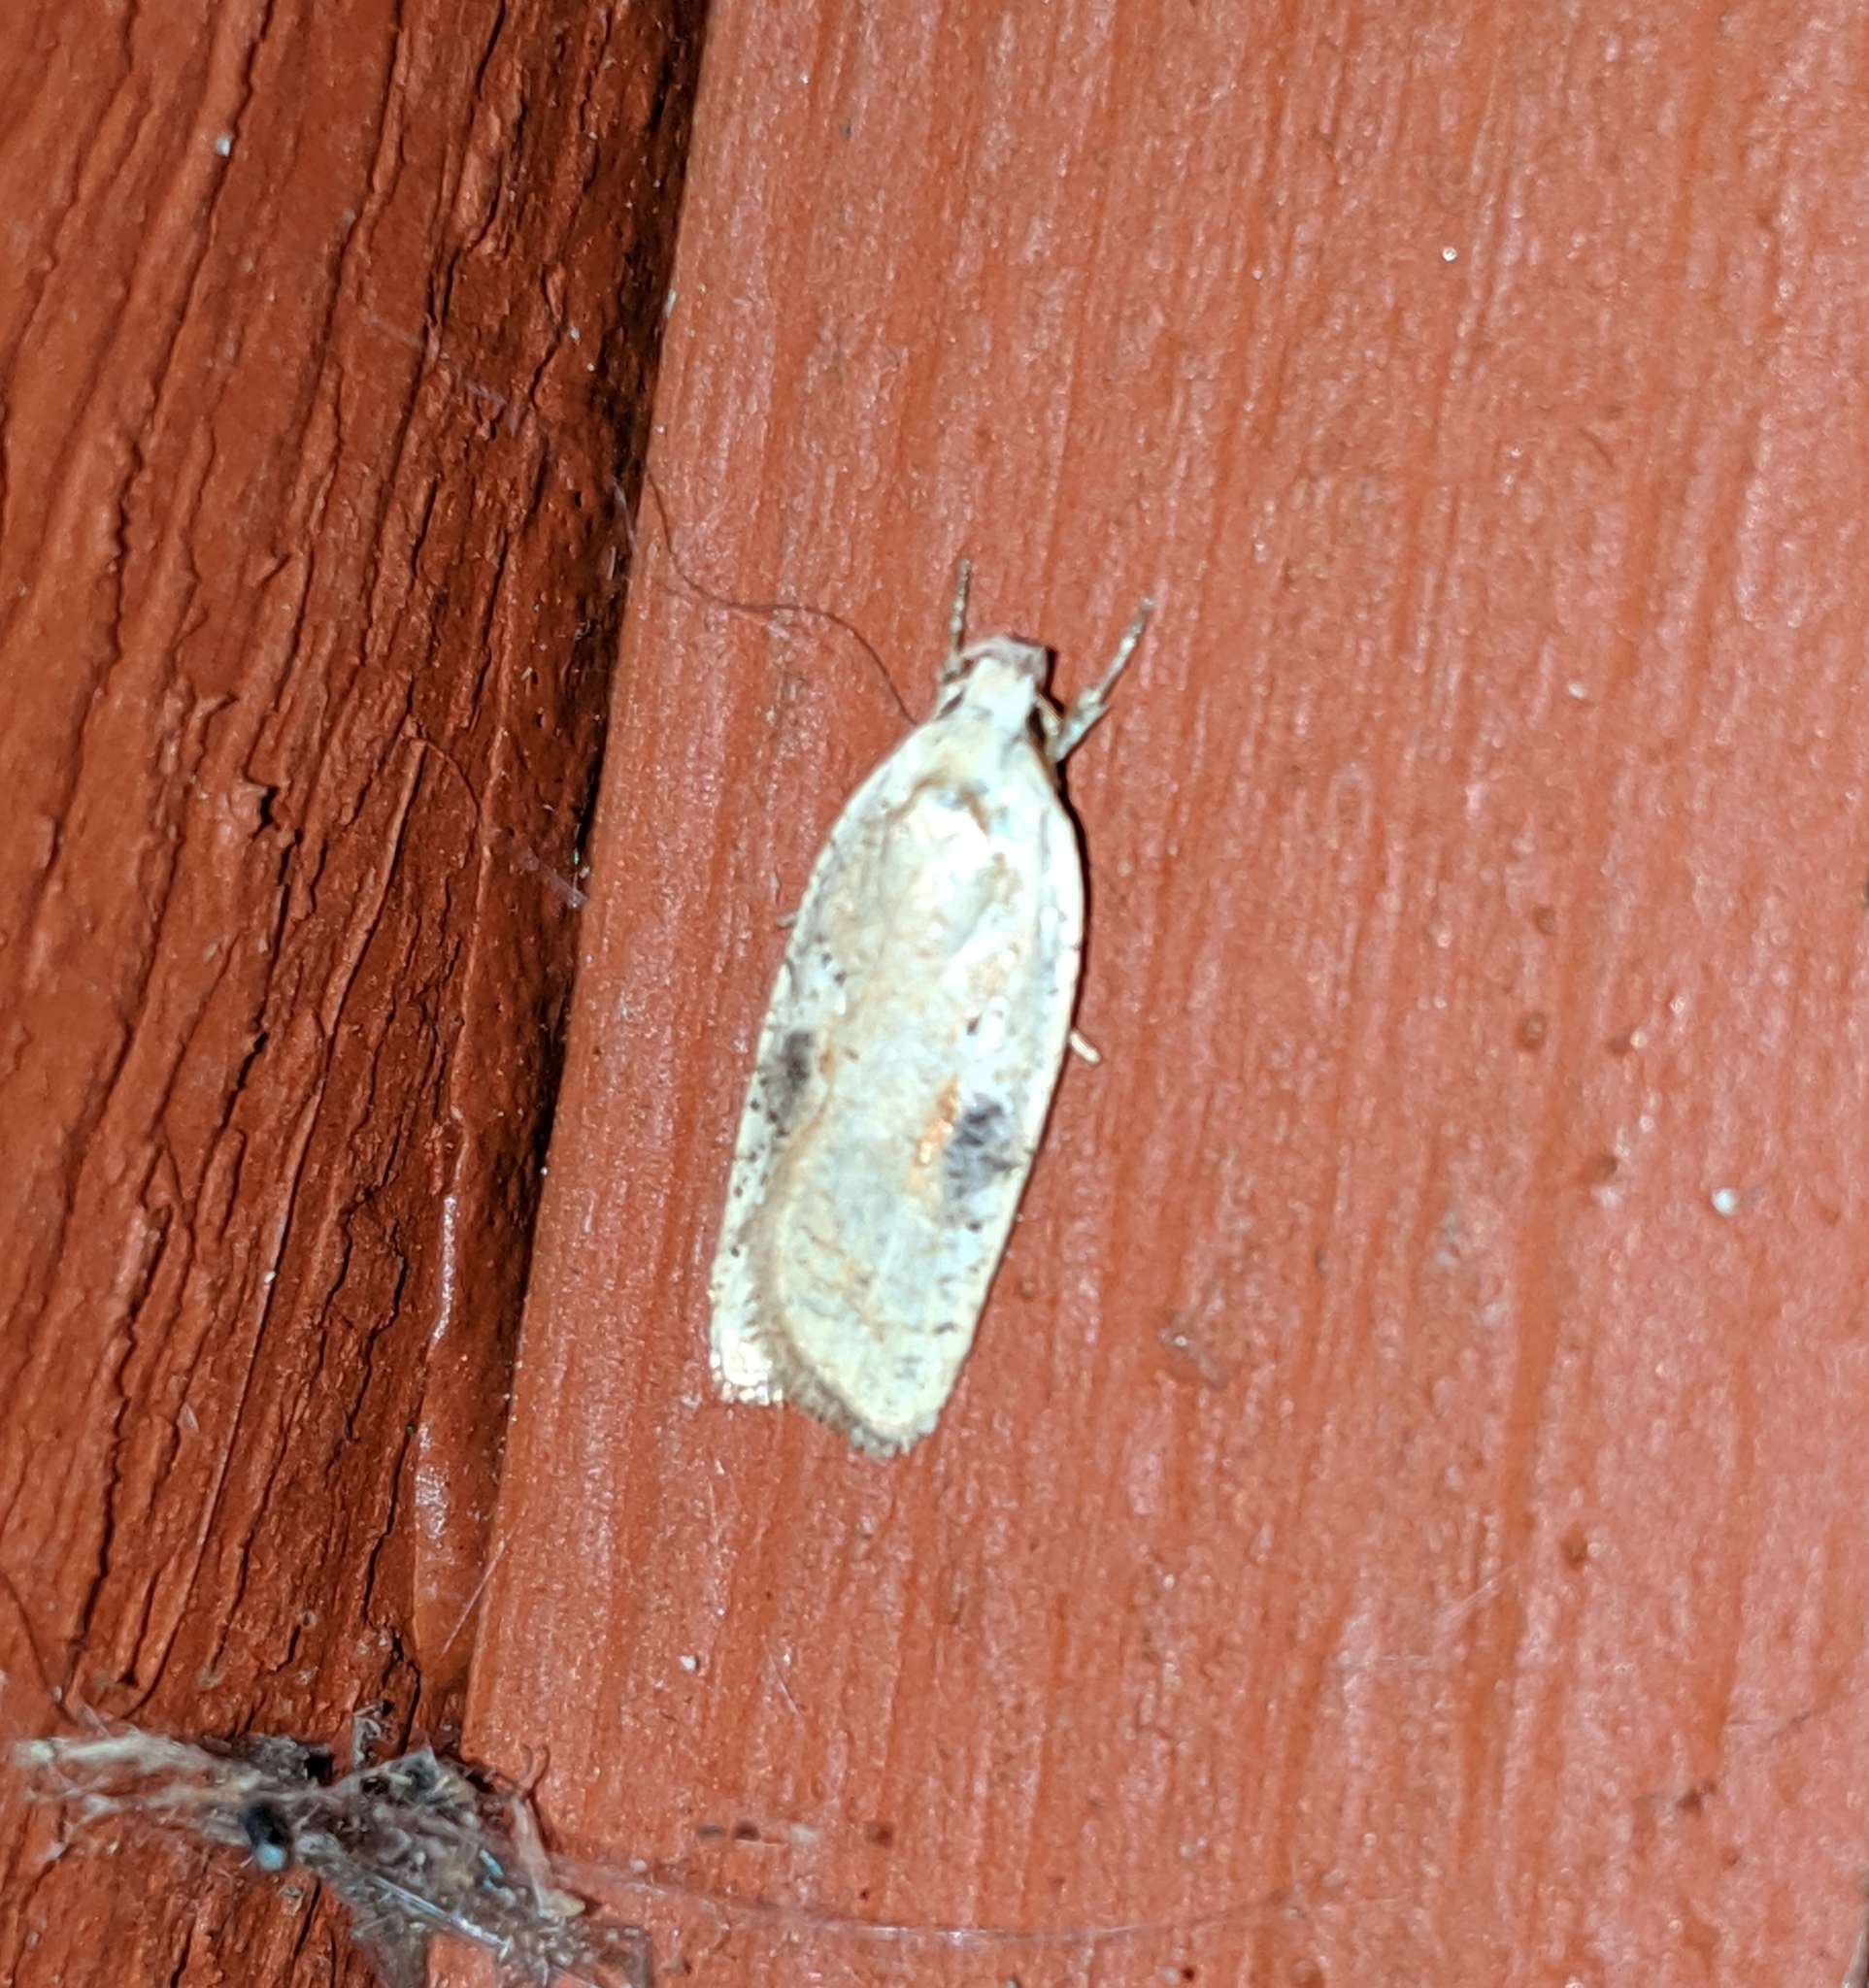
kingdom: Animalia
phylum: Arthropoda
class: Insecta
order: Lepidoptera
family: Depressariidae
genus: Agonopterix
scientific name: Agonopterix nervosa
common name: Gorse tip moth
